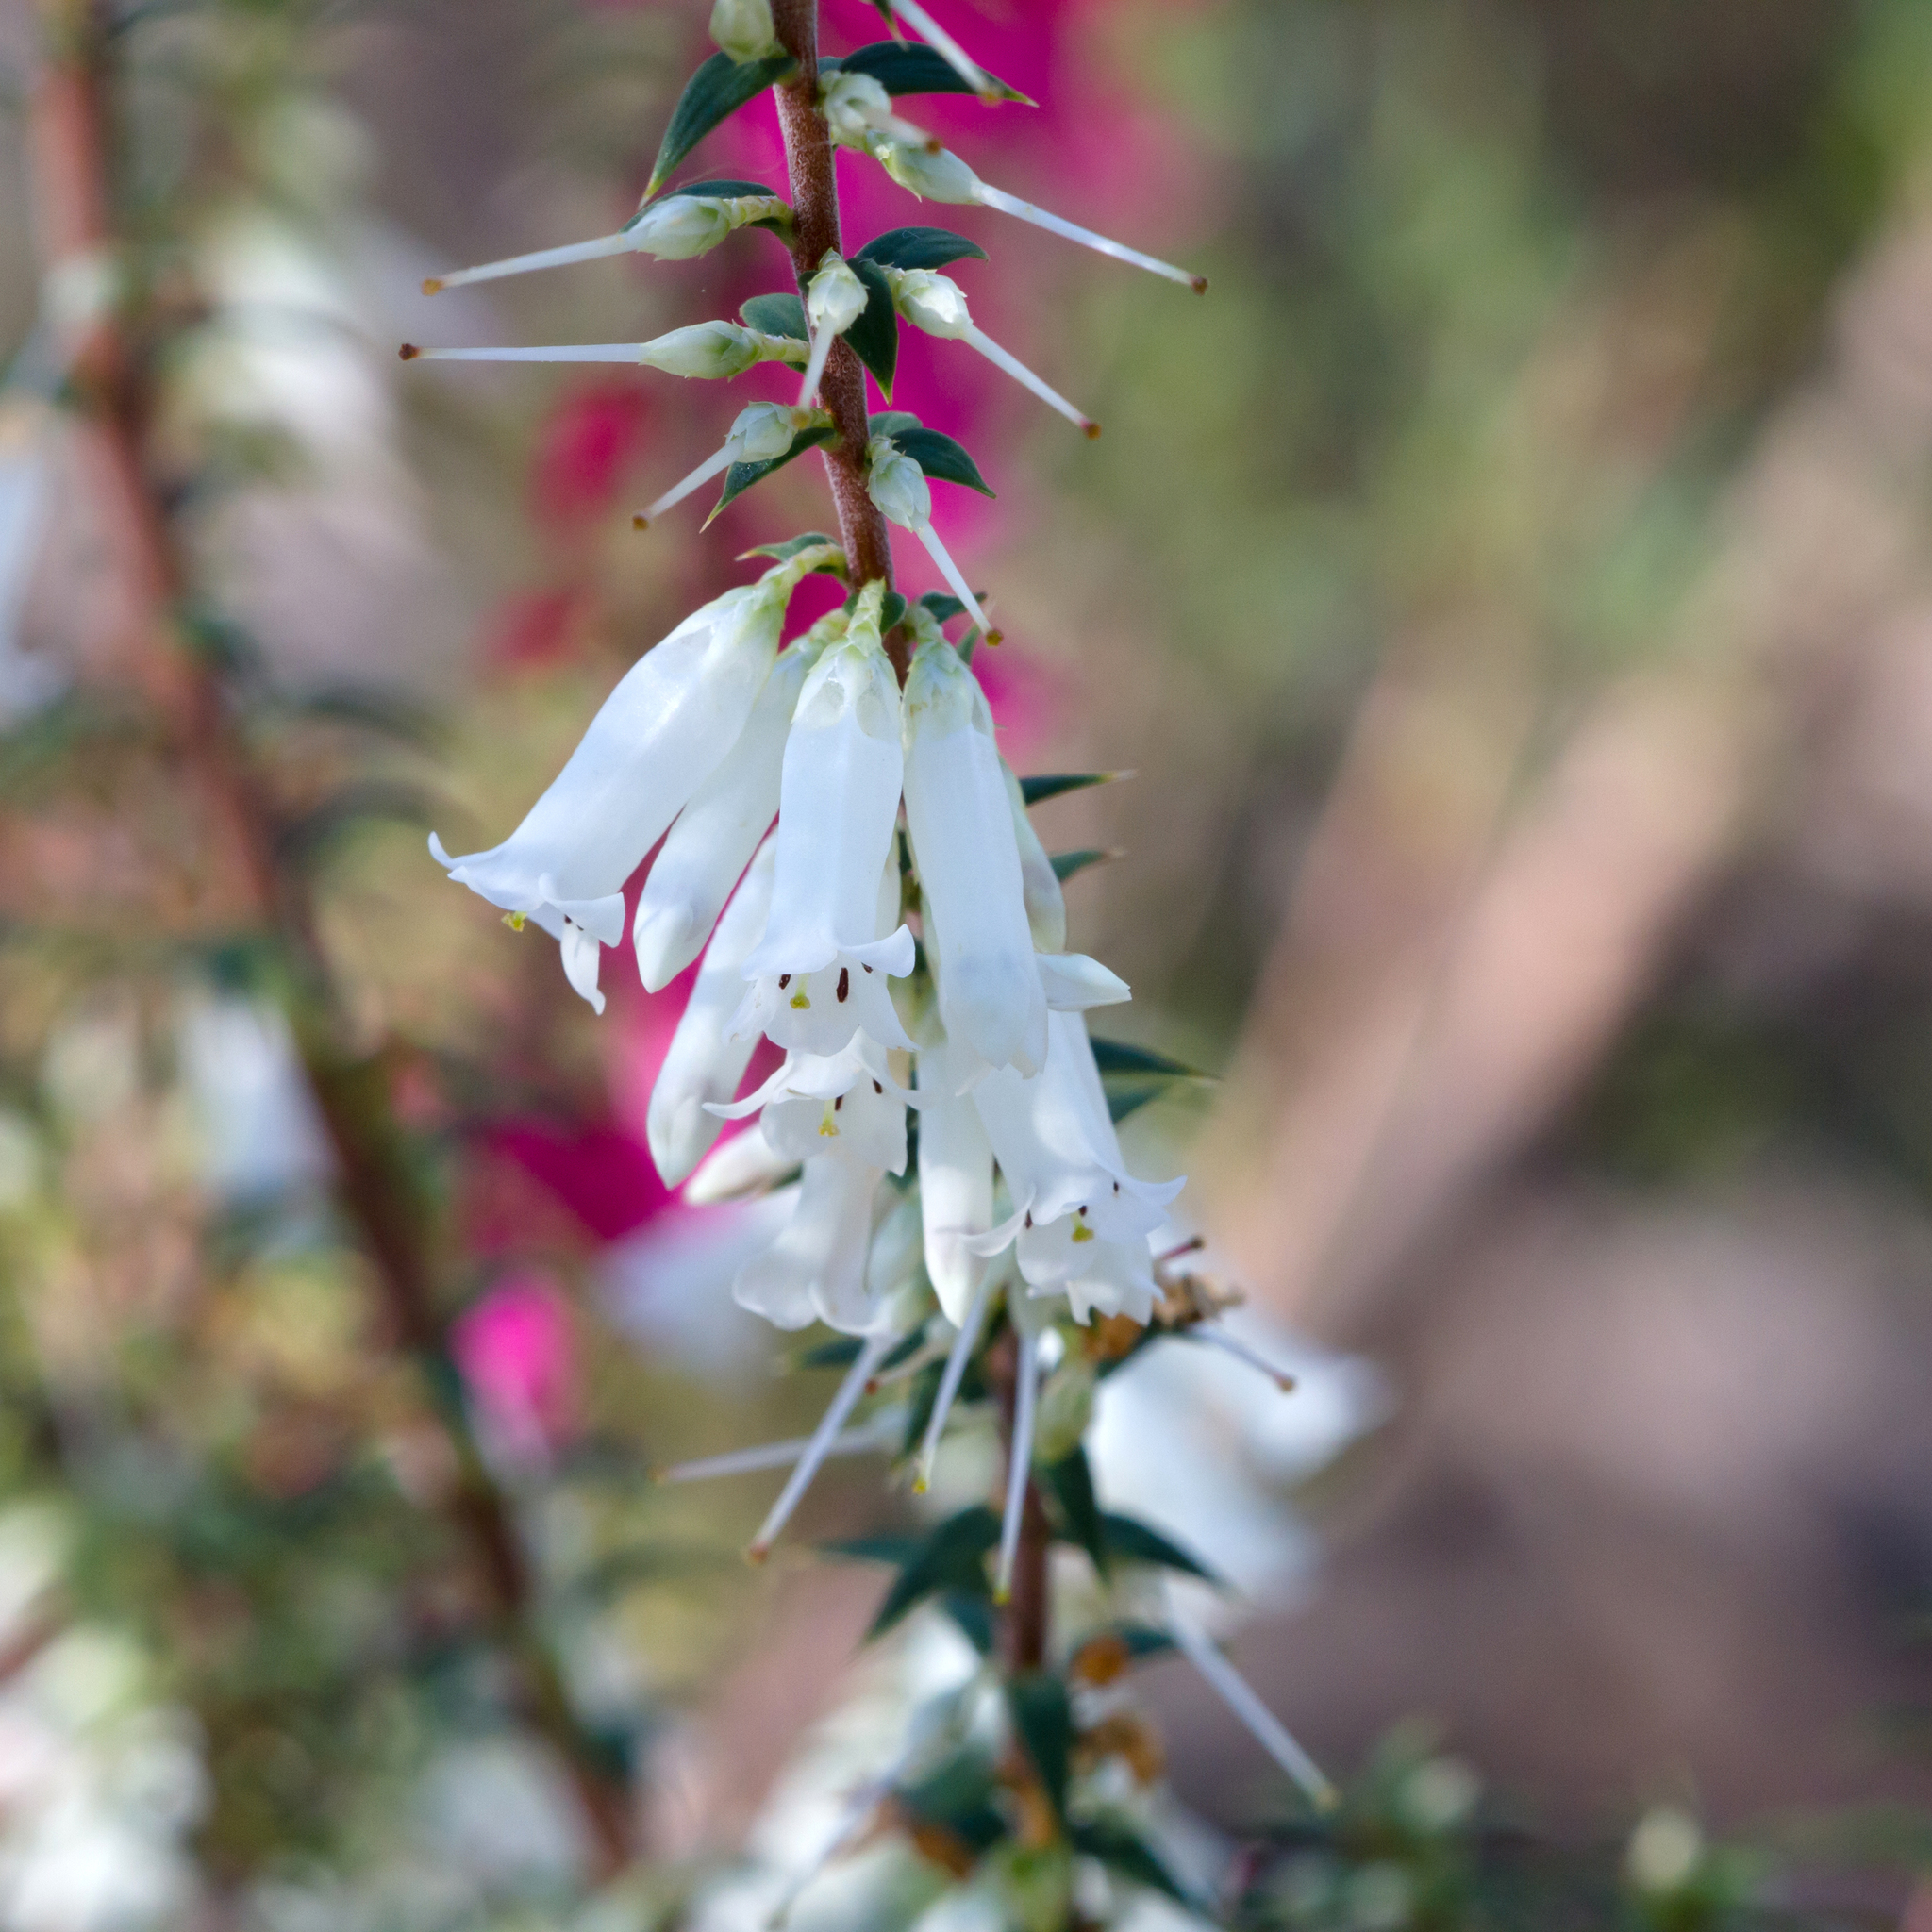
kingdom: Plantae
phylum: Tracheophyta
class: Magnoliopsida
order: Ericales
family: Ericaceae
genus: Epacris
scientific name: Epacris impressa
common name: Common-heath
